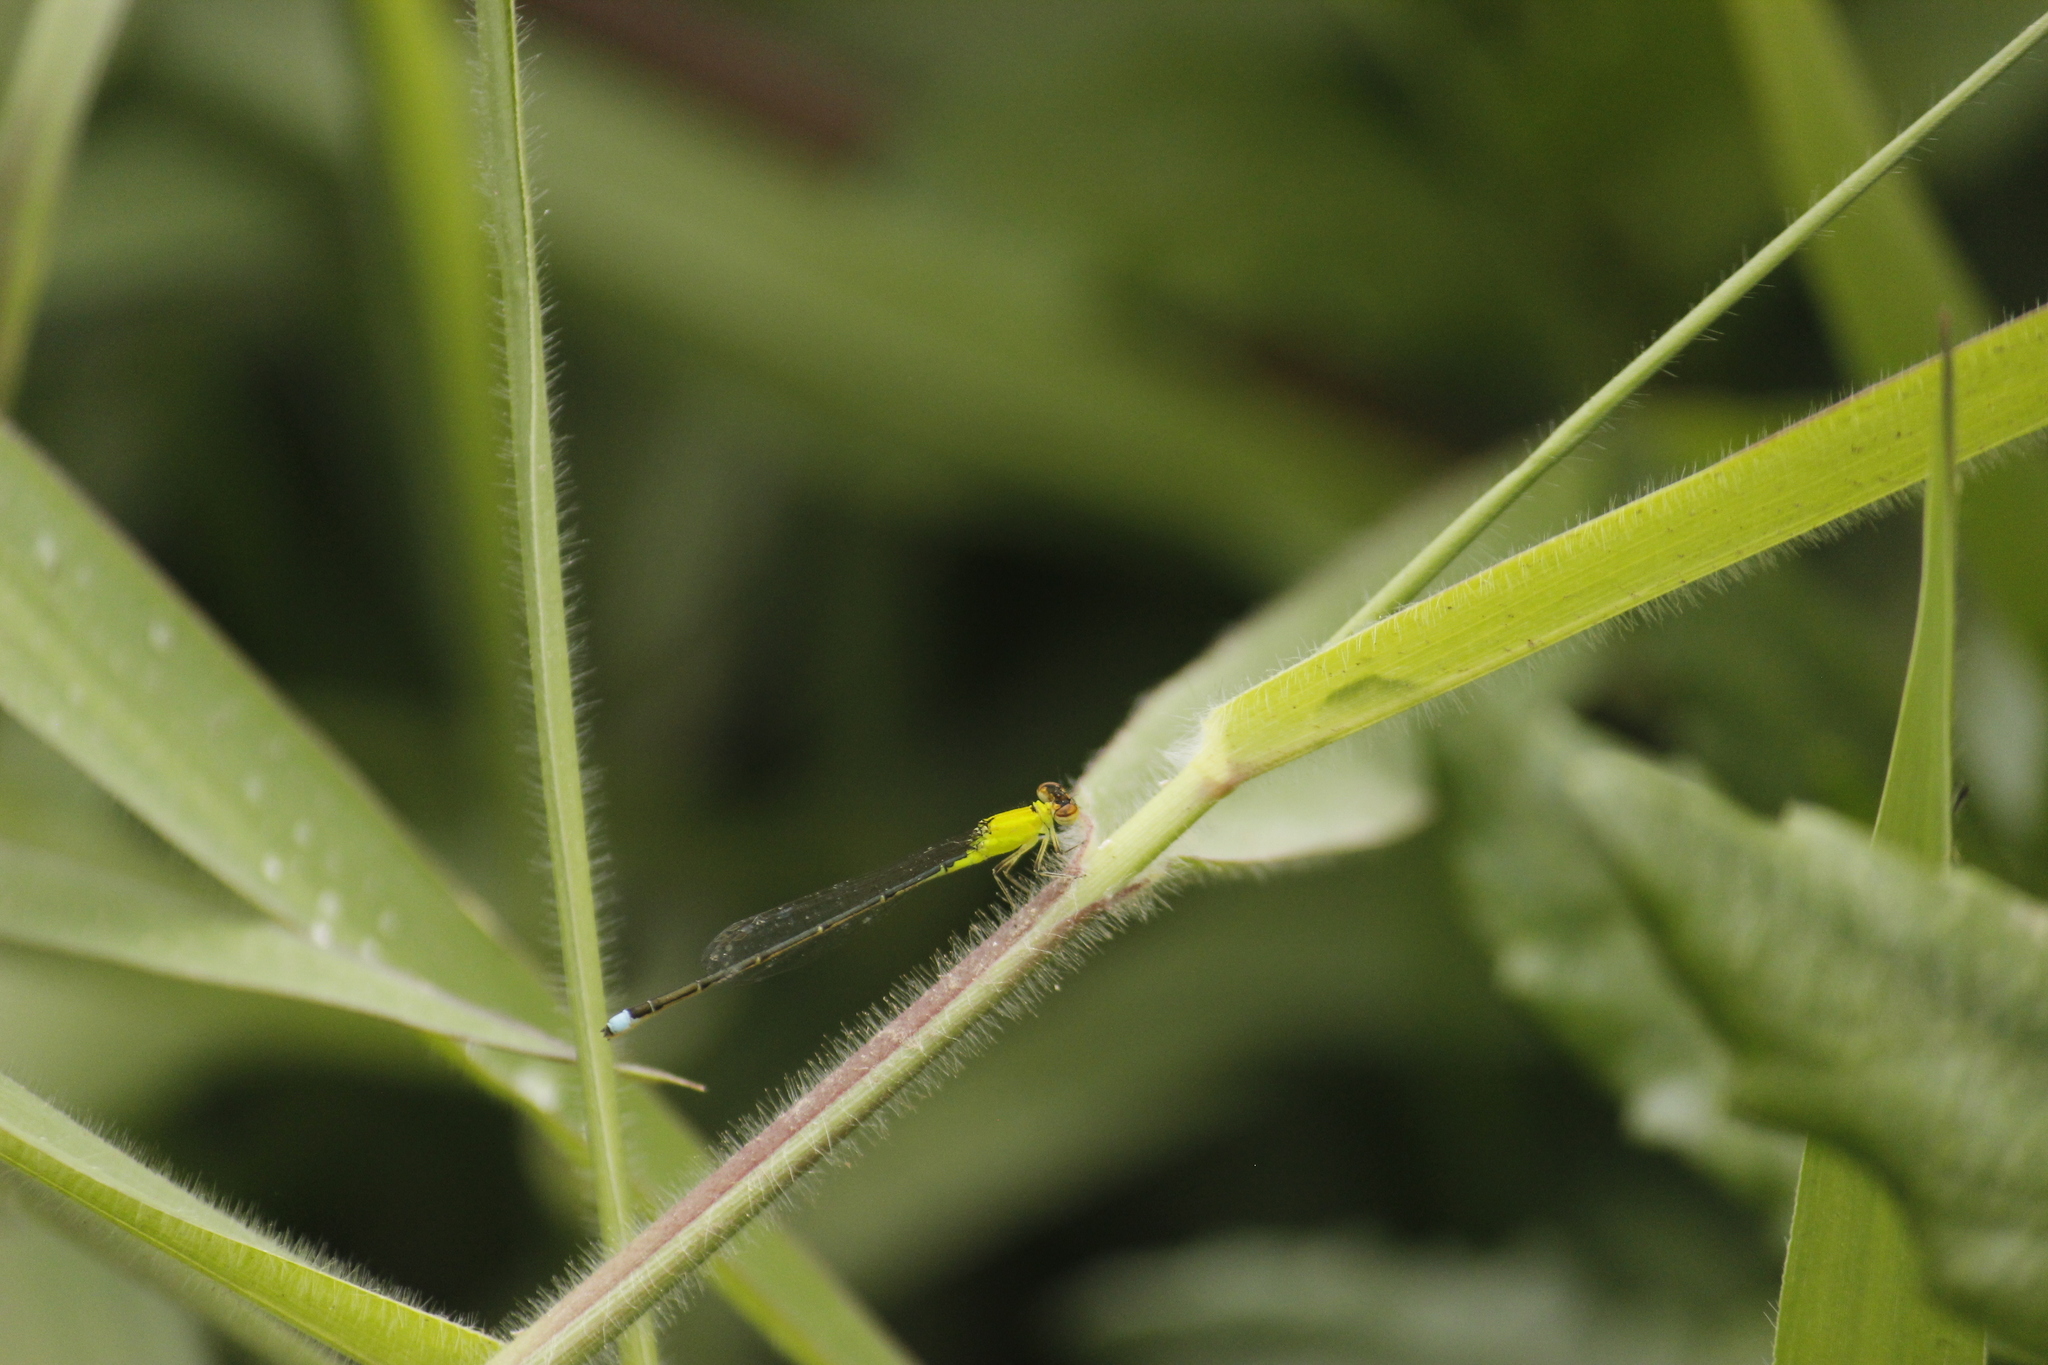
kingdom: Animalia
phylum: Arthropoda
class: Insecta
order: Odonata
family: Coenagrionidae
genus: Ischnura
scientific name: Ischnura capreolus
